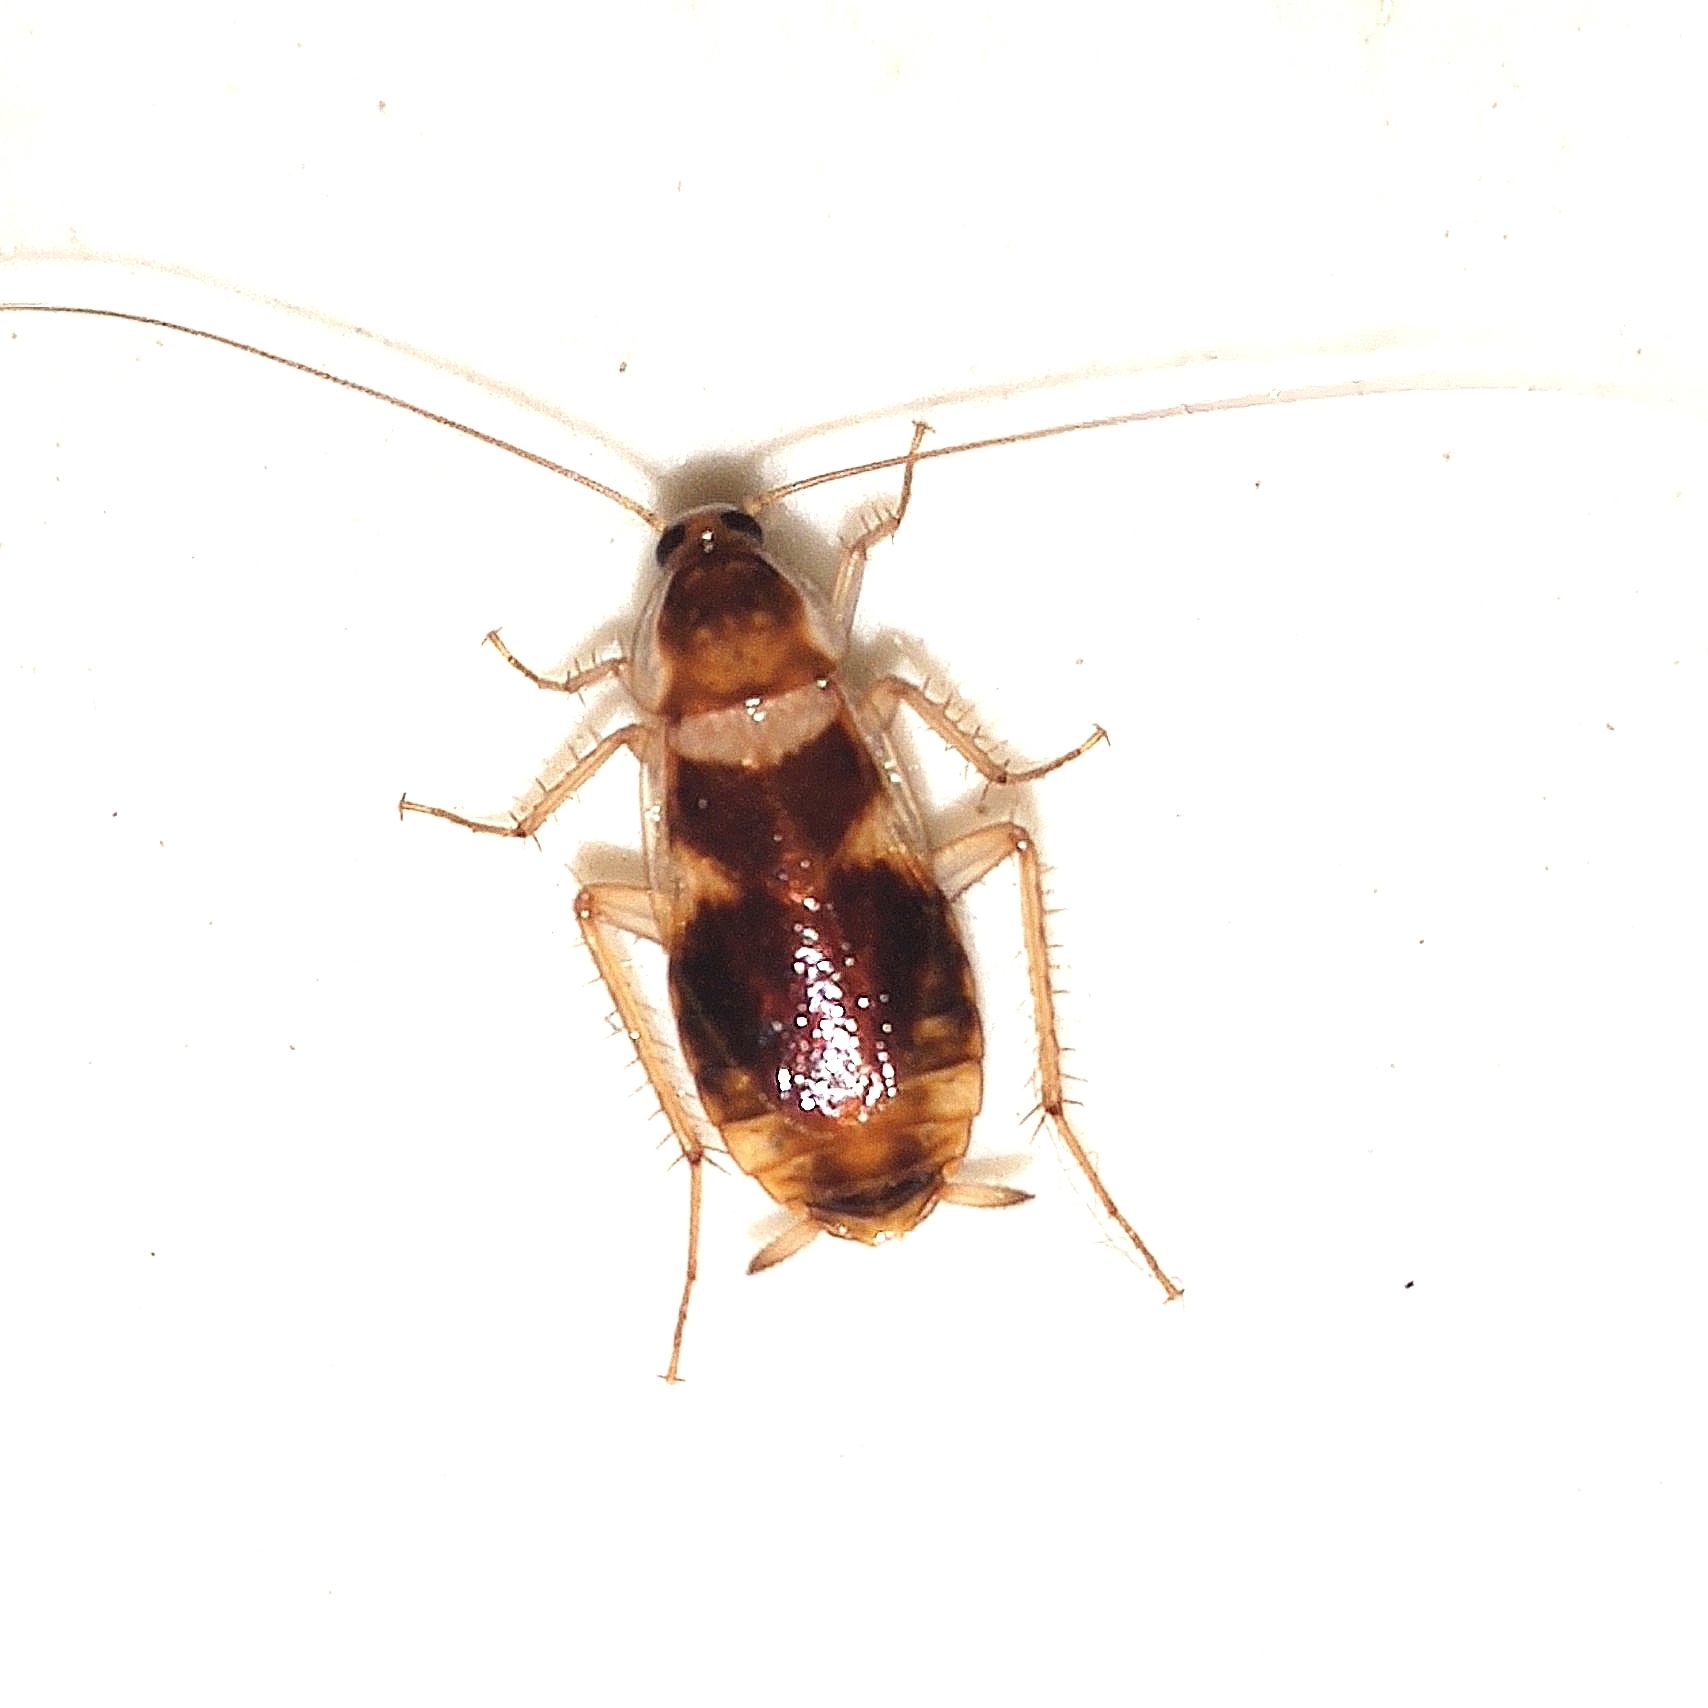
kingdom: Animalia
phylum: Arthropoda
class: Insecta
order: Blattodea
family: Ectobiidae
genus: Supella
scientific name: Supella longipalpa
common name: Brown-banded cockroach
